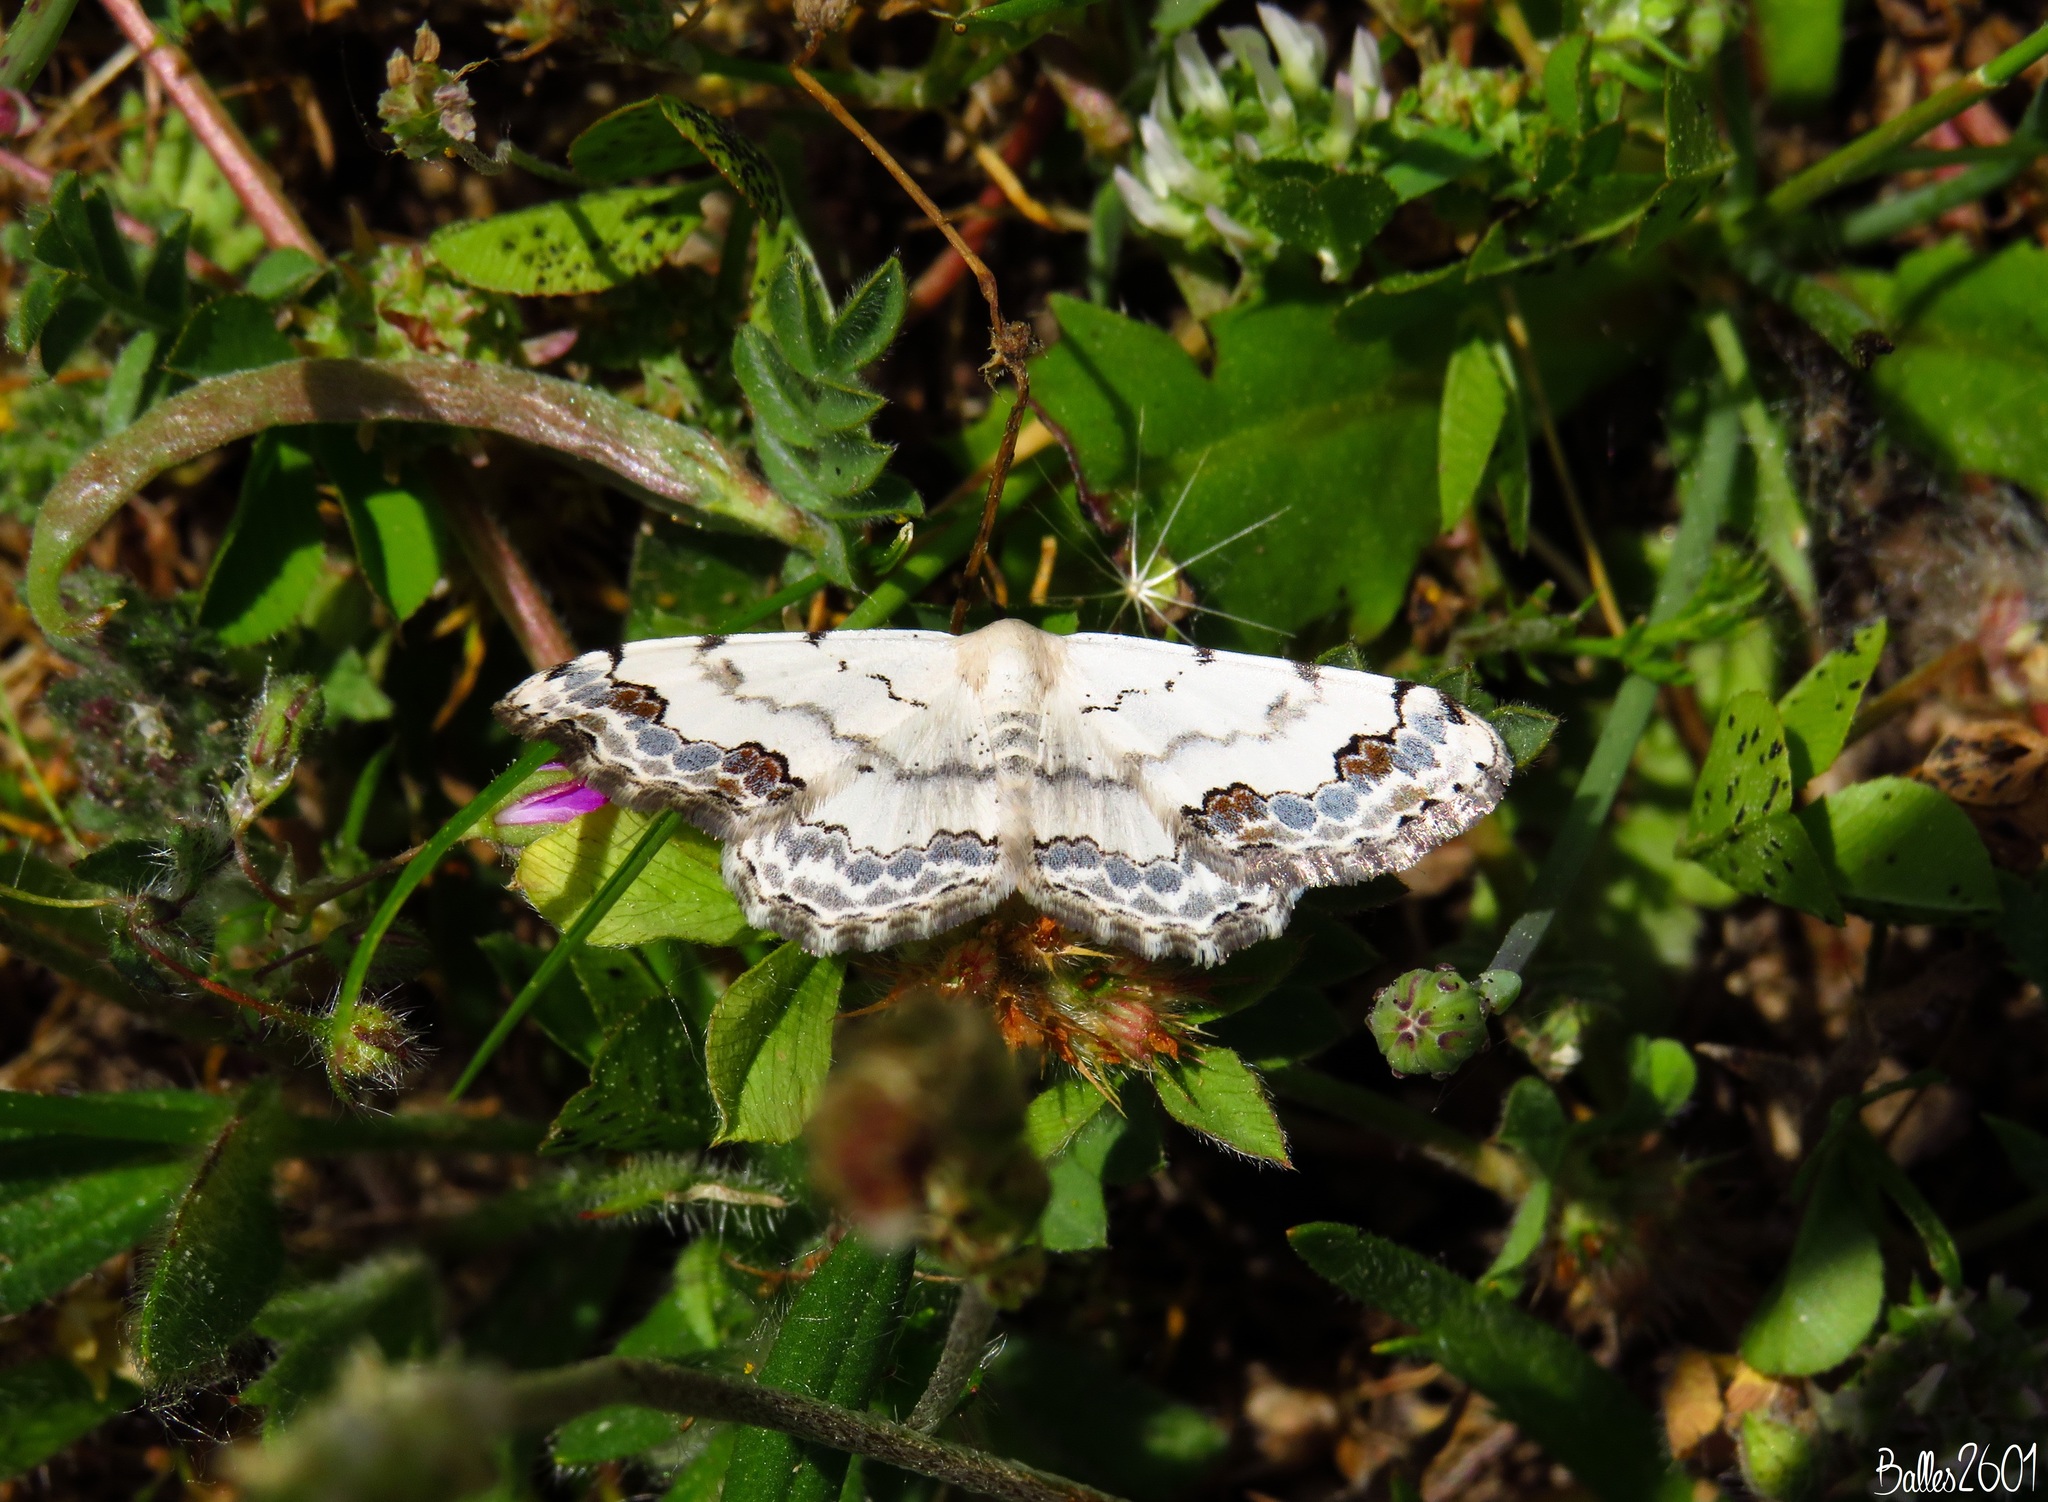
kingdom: Animalia
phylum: Arthropoda
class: Insecta
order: Lepidoptera
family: Geometridae
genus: Scopula
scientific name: Scopula decorata
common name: Middle lace border
